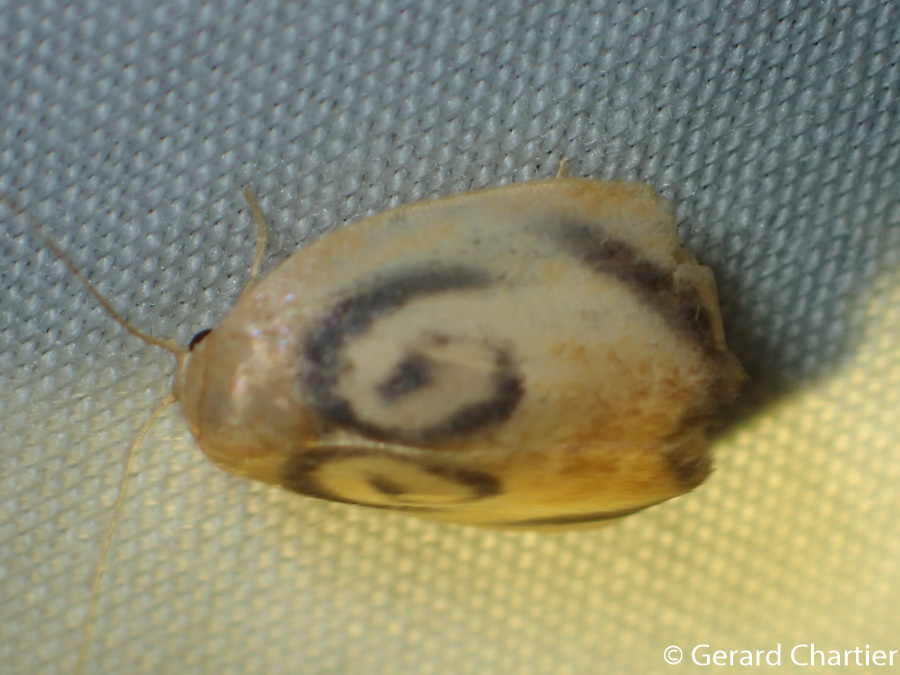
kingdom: Animalia
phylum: Arthropoda
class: Insecta
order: Lepidoptera
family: Erebidae
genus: Trischalis
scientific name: Trischalis subaurana
